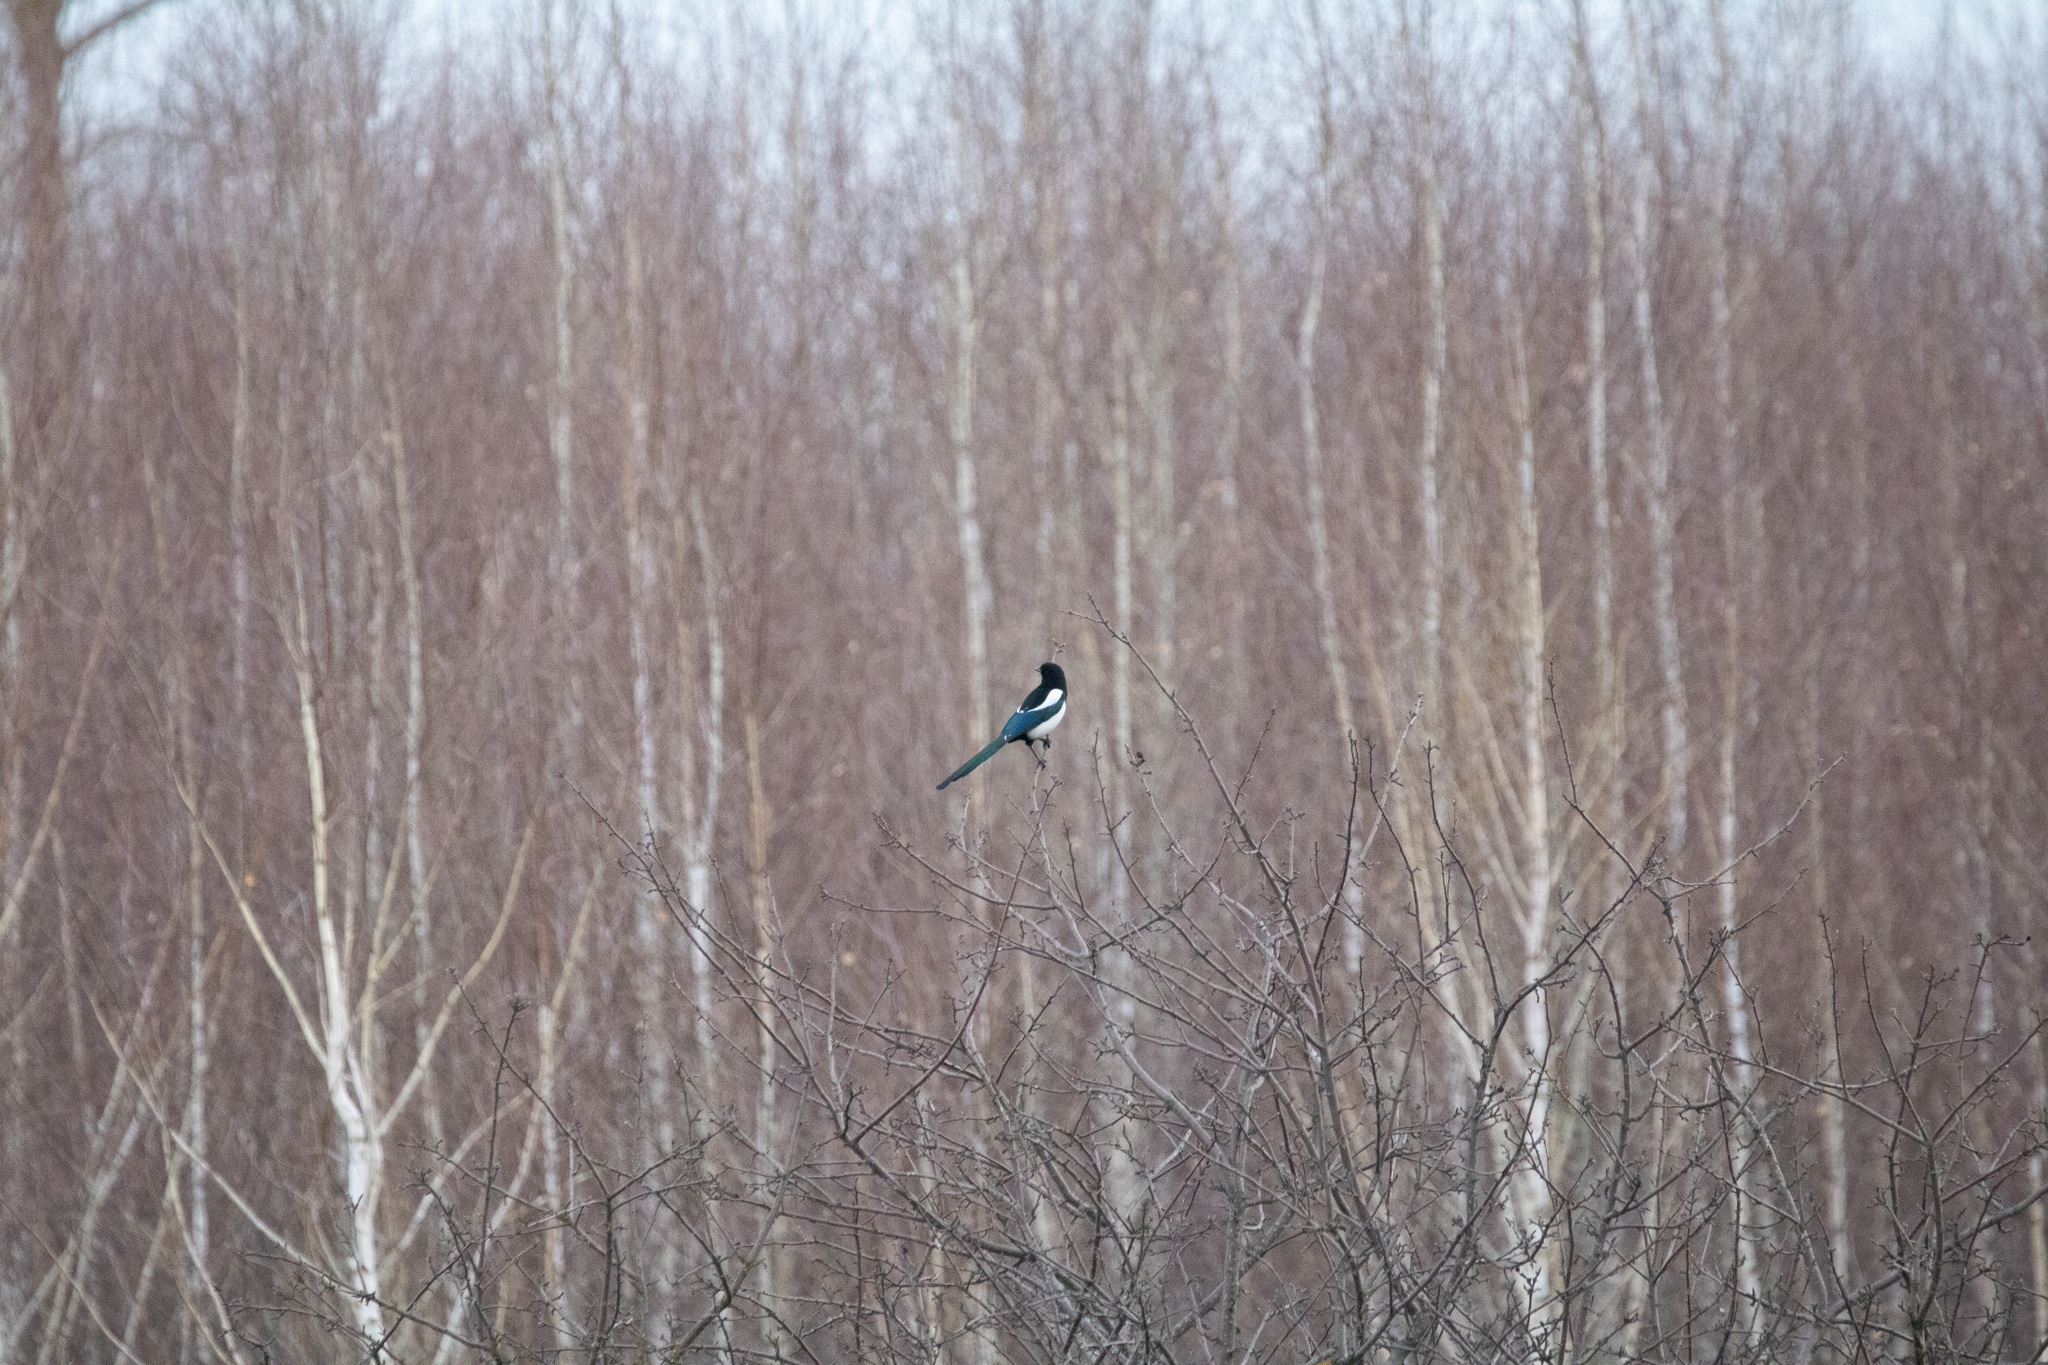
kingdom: Animalia
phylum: Chordata
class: Aves
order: Passeriformes
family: Corvidae
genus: Pica
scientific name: Pica pica
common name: Eurasian magpie
